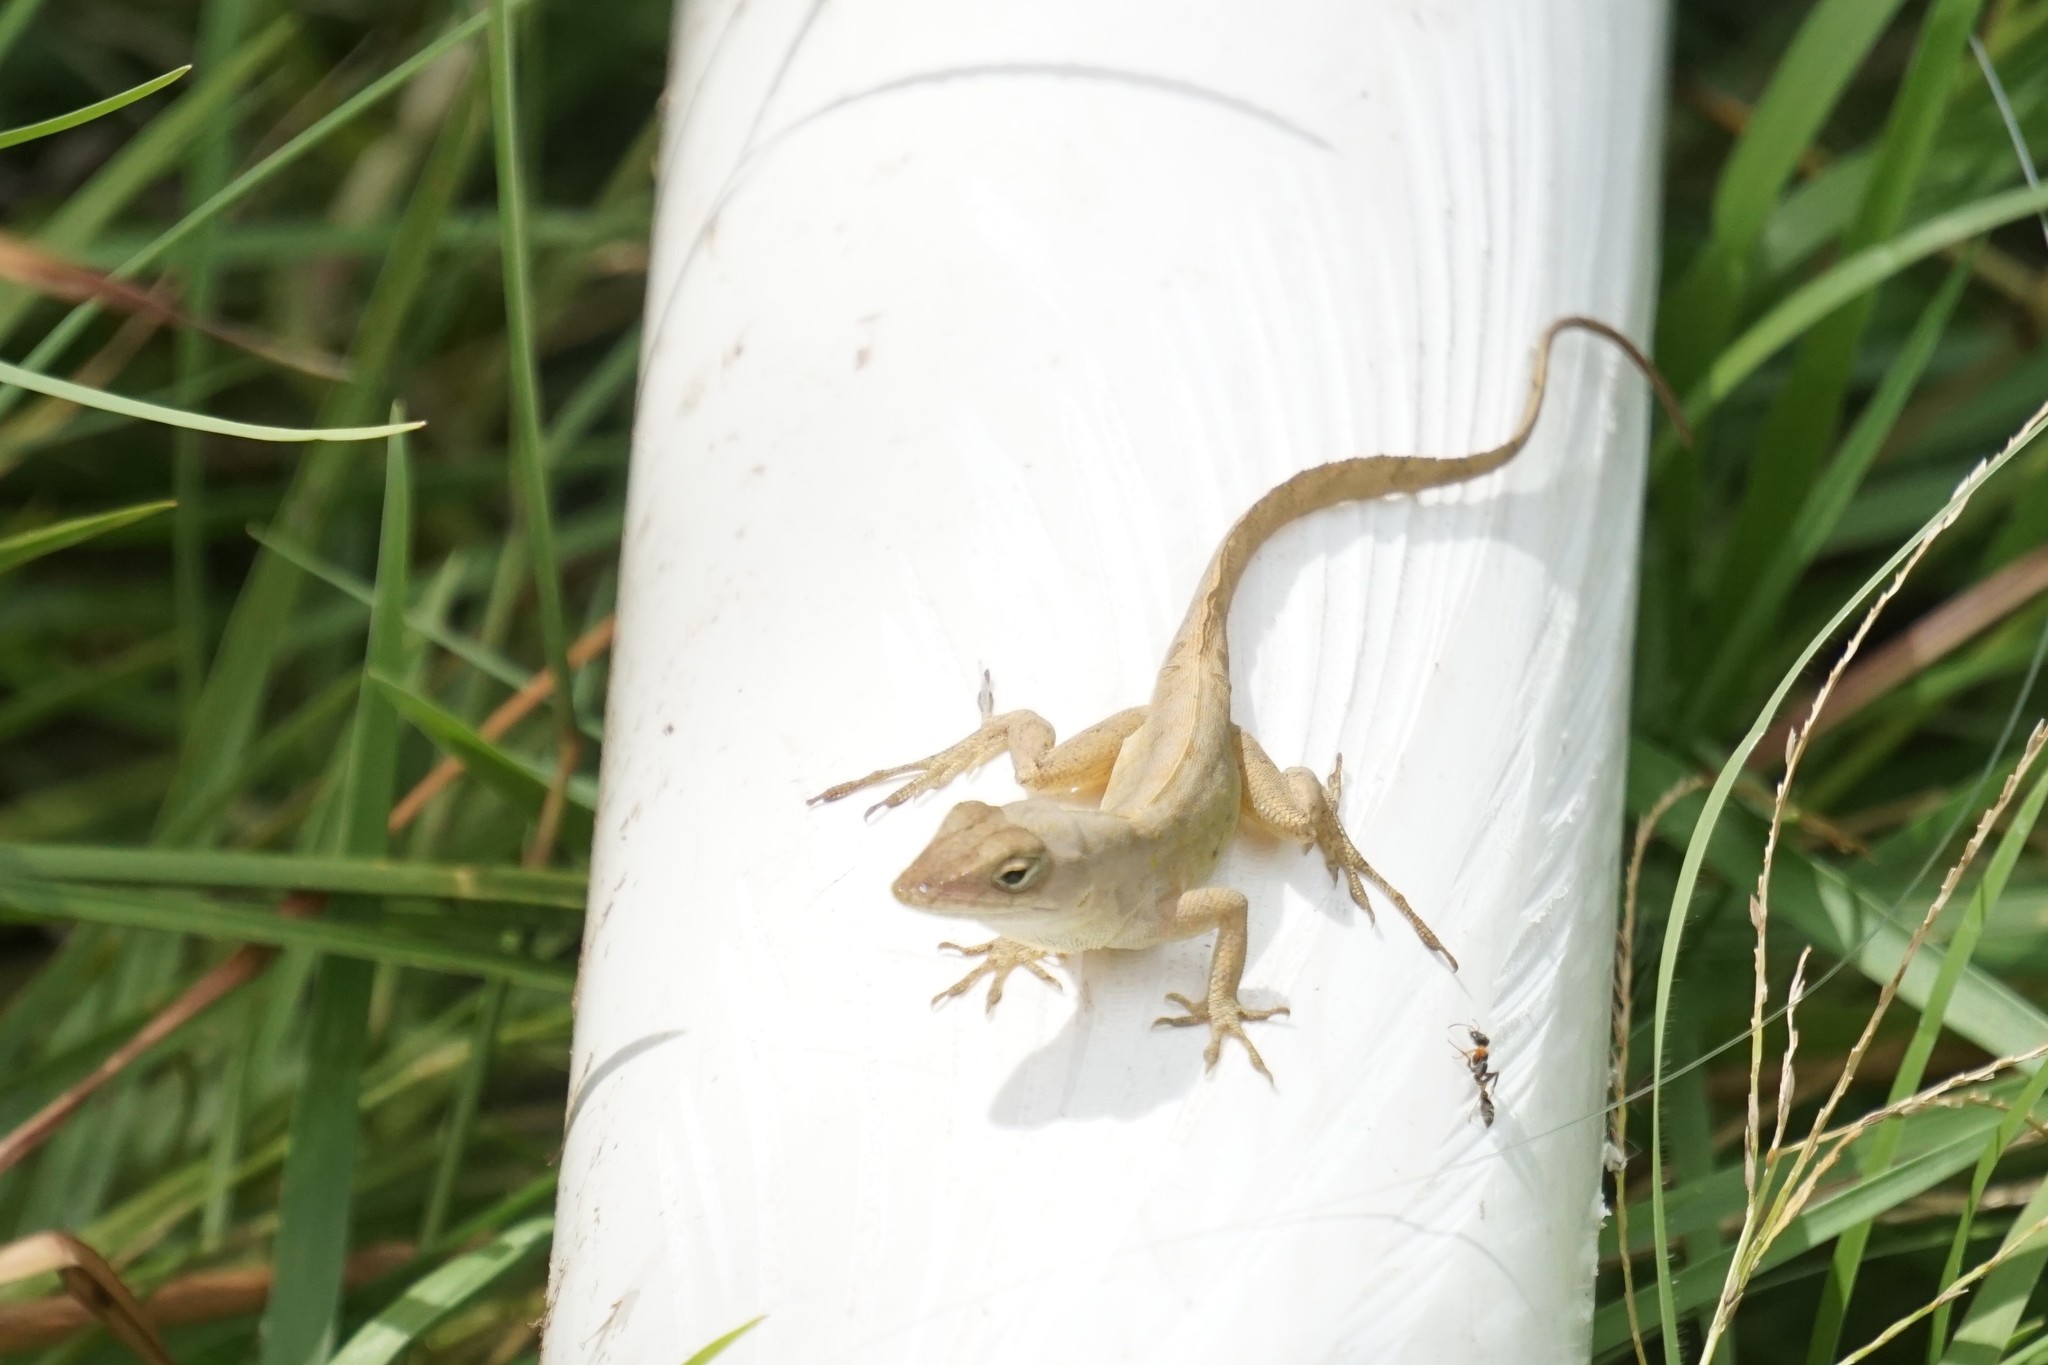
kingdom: Animalia
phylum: Chordata
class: Squamata
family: Dactyloidae
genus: Anolis
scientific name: Anolis sagrei
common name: Brown anole
